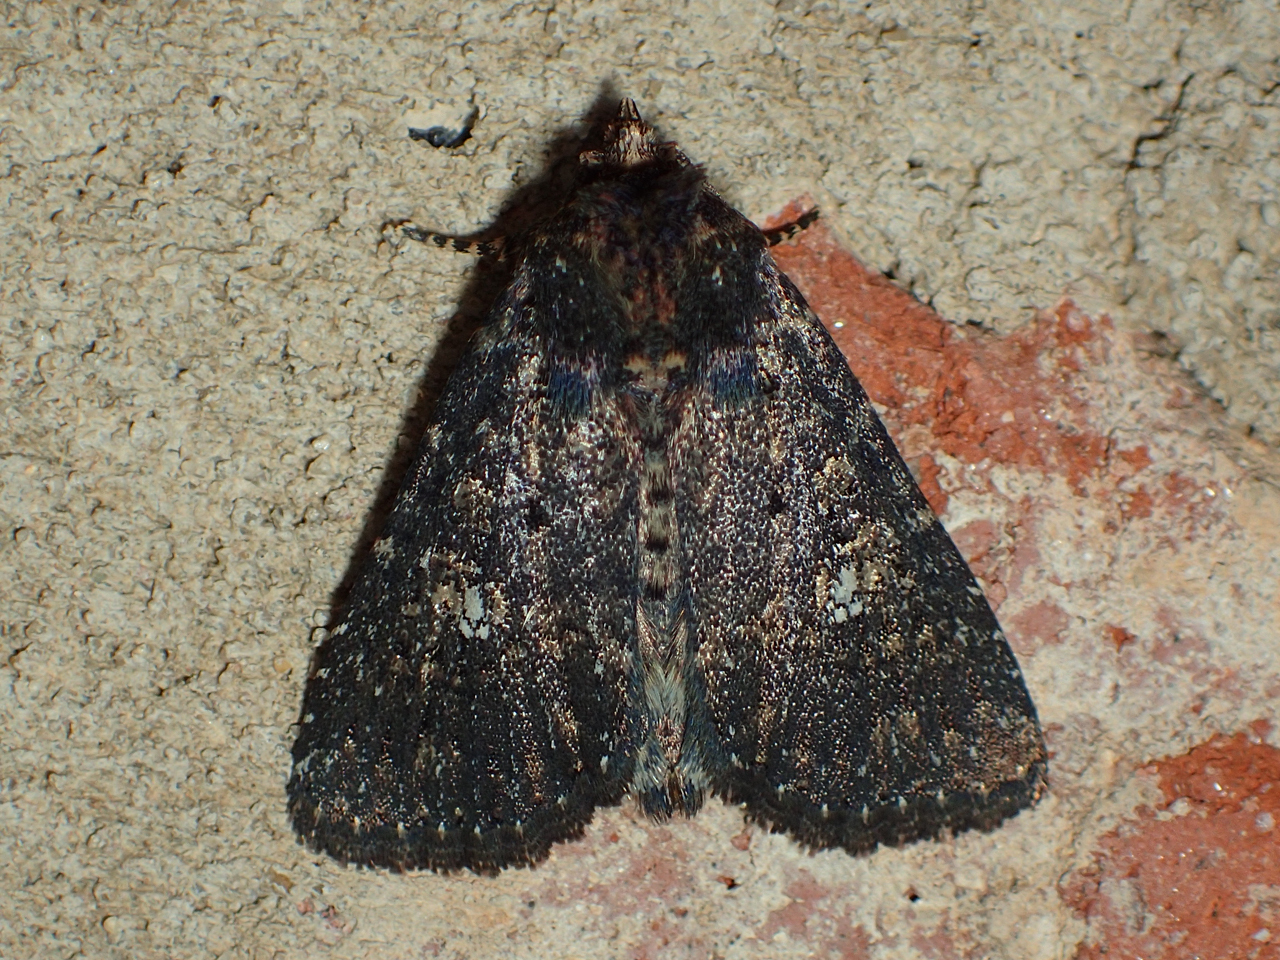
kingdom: Animalia
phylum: Arthropoda
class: Insecta
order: Lepidoptera
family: Noctuidae
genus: Condica
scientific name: Condica vecors
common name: Dusky groundling
